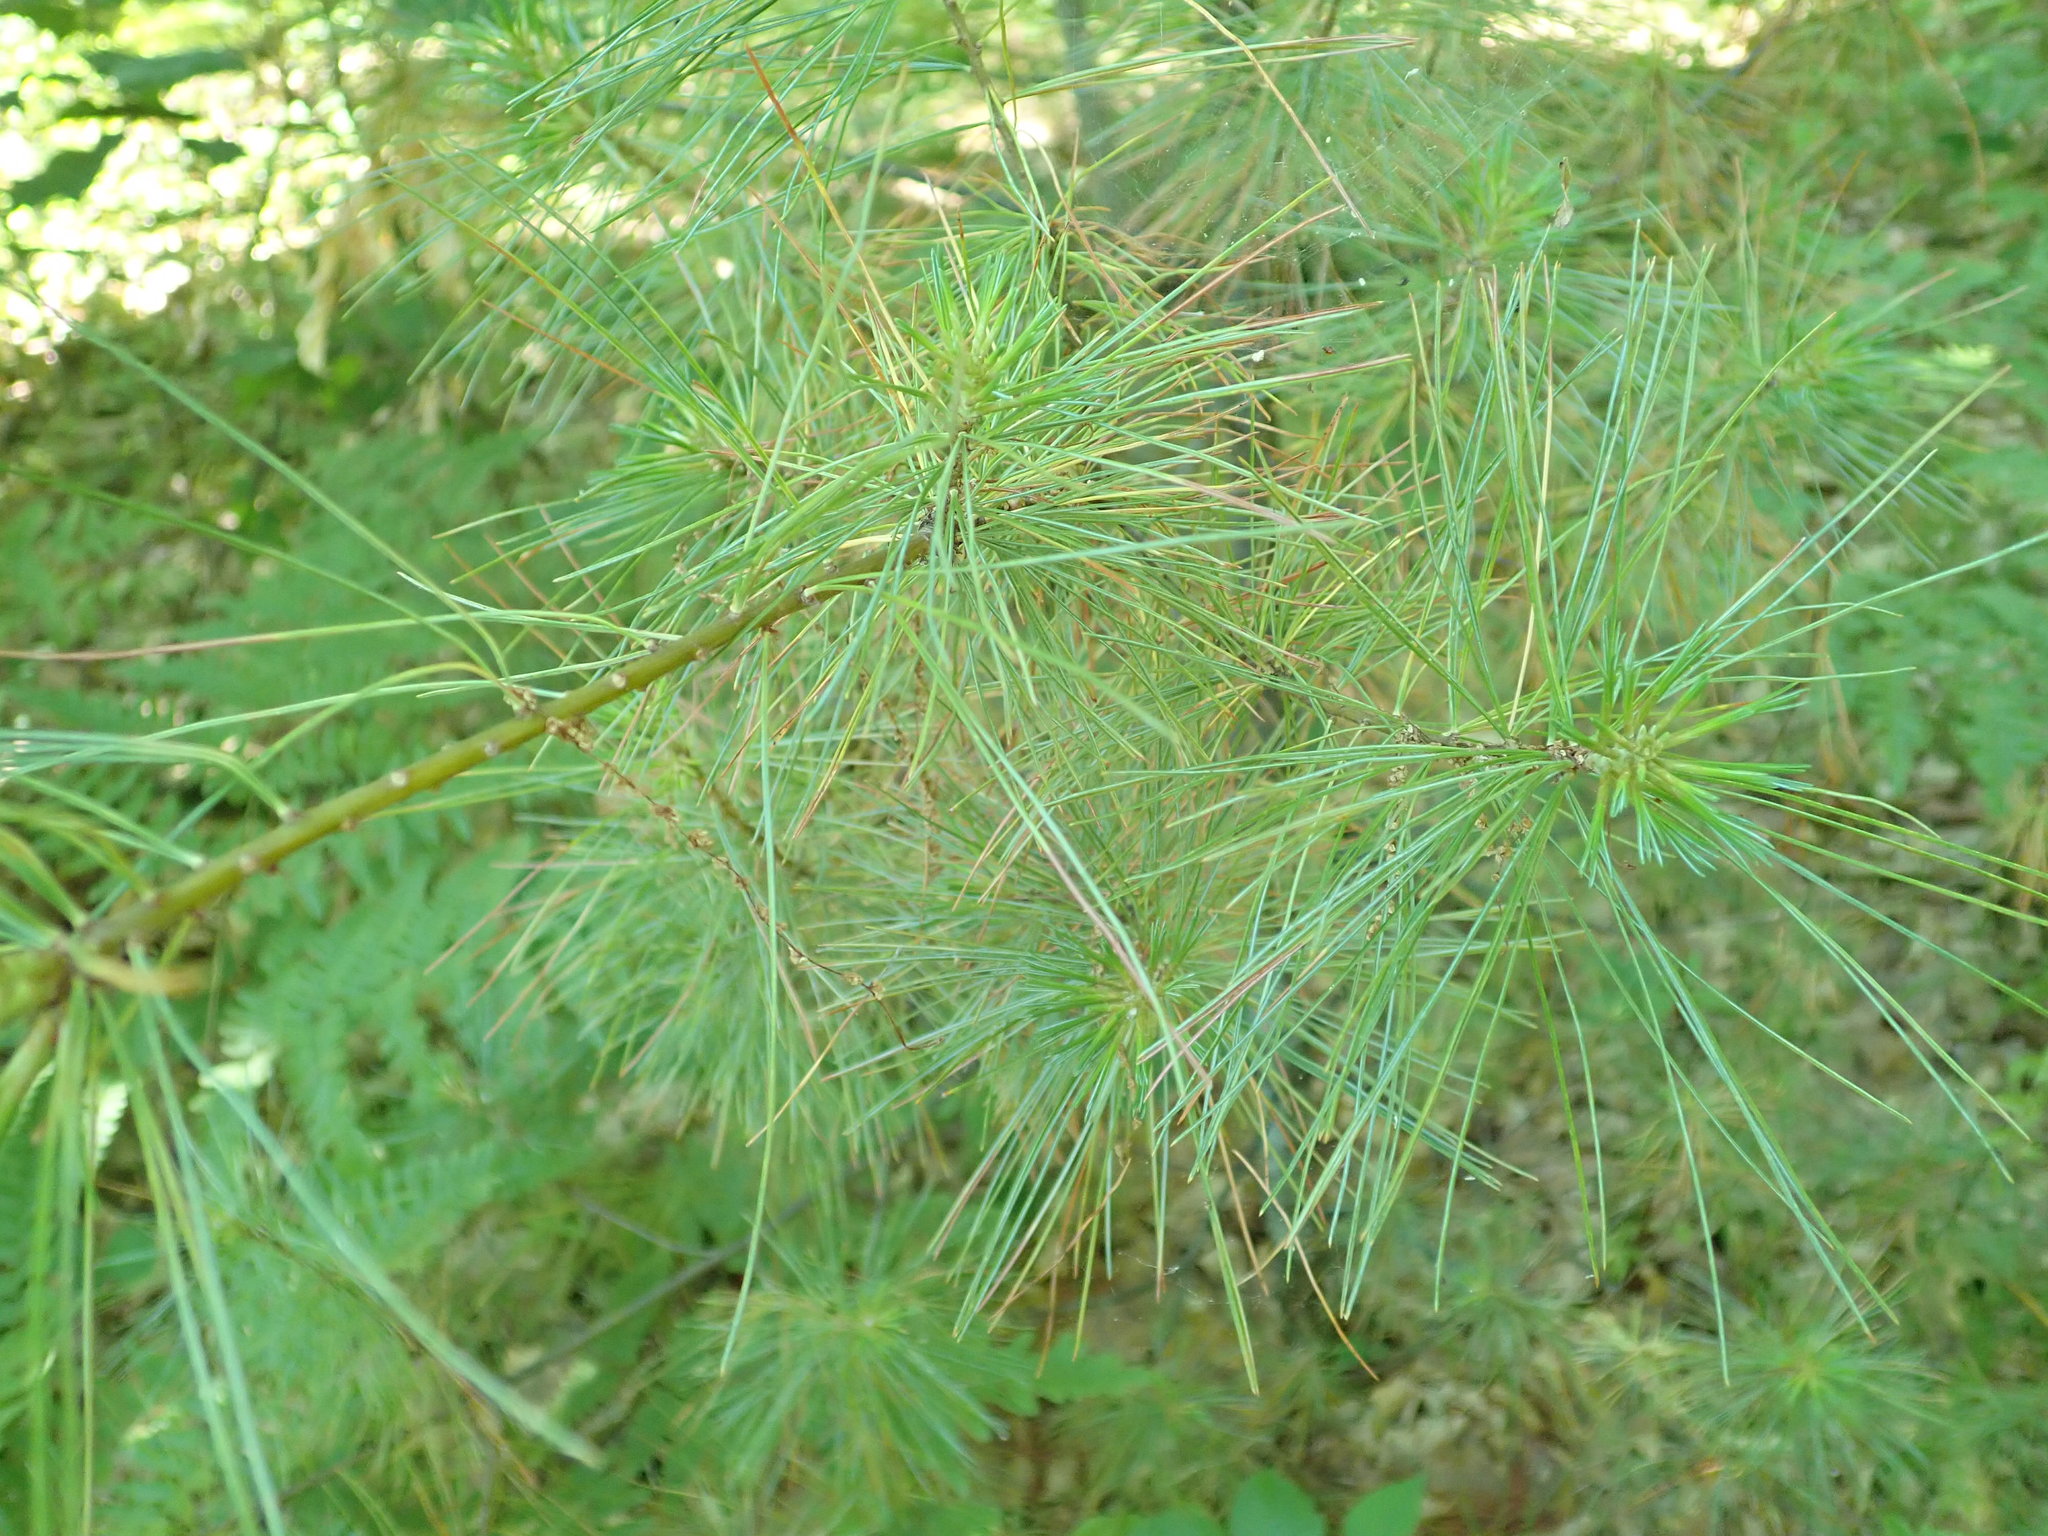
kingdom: Plantae
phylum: Tracheophyta
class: Pinopsida
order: Pinales
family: Pinaceae
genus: Pinus
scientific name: Pinus strobus
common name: Weymouth pine
